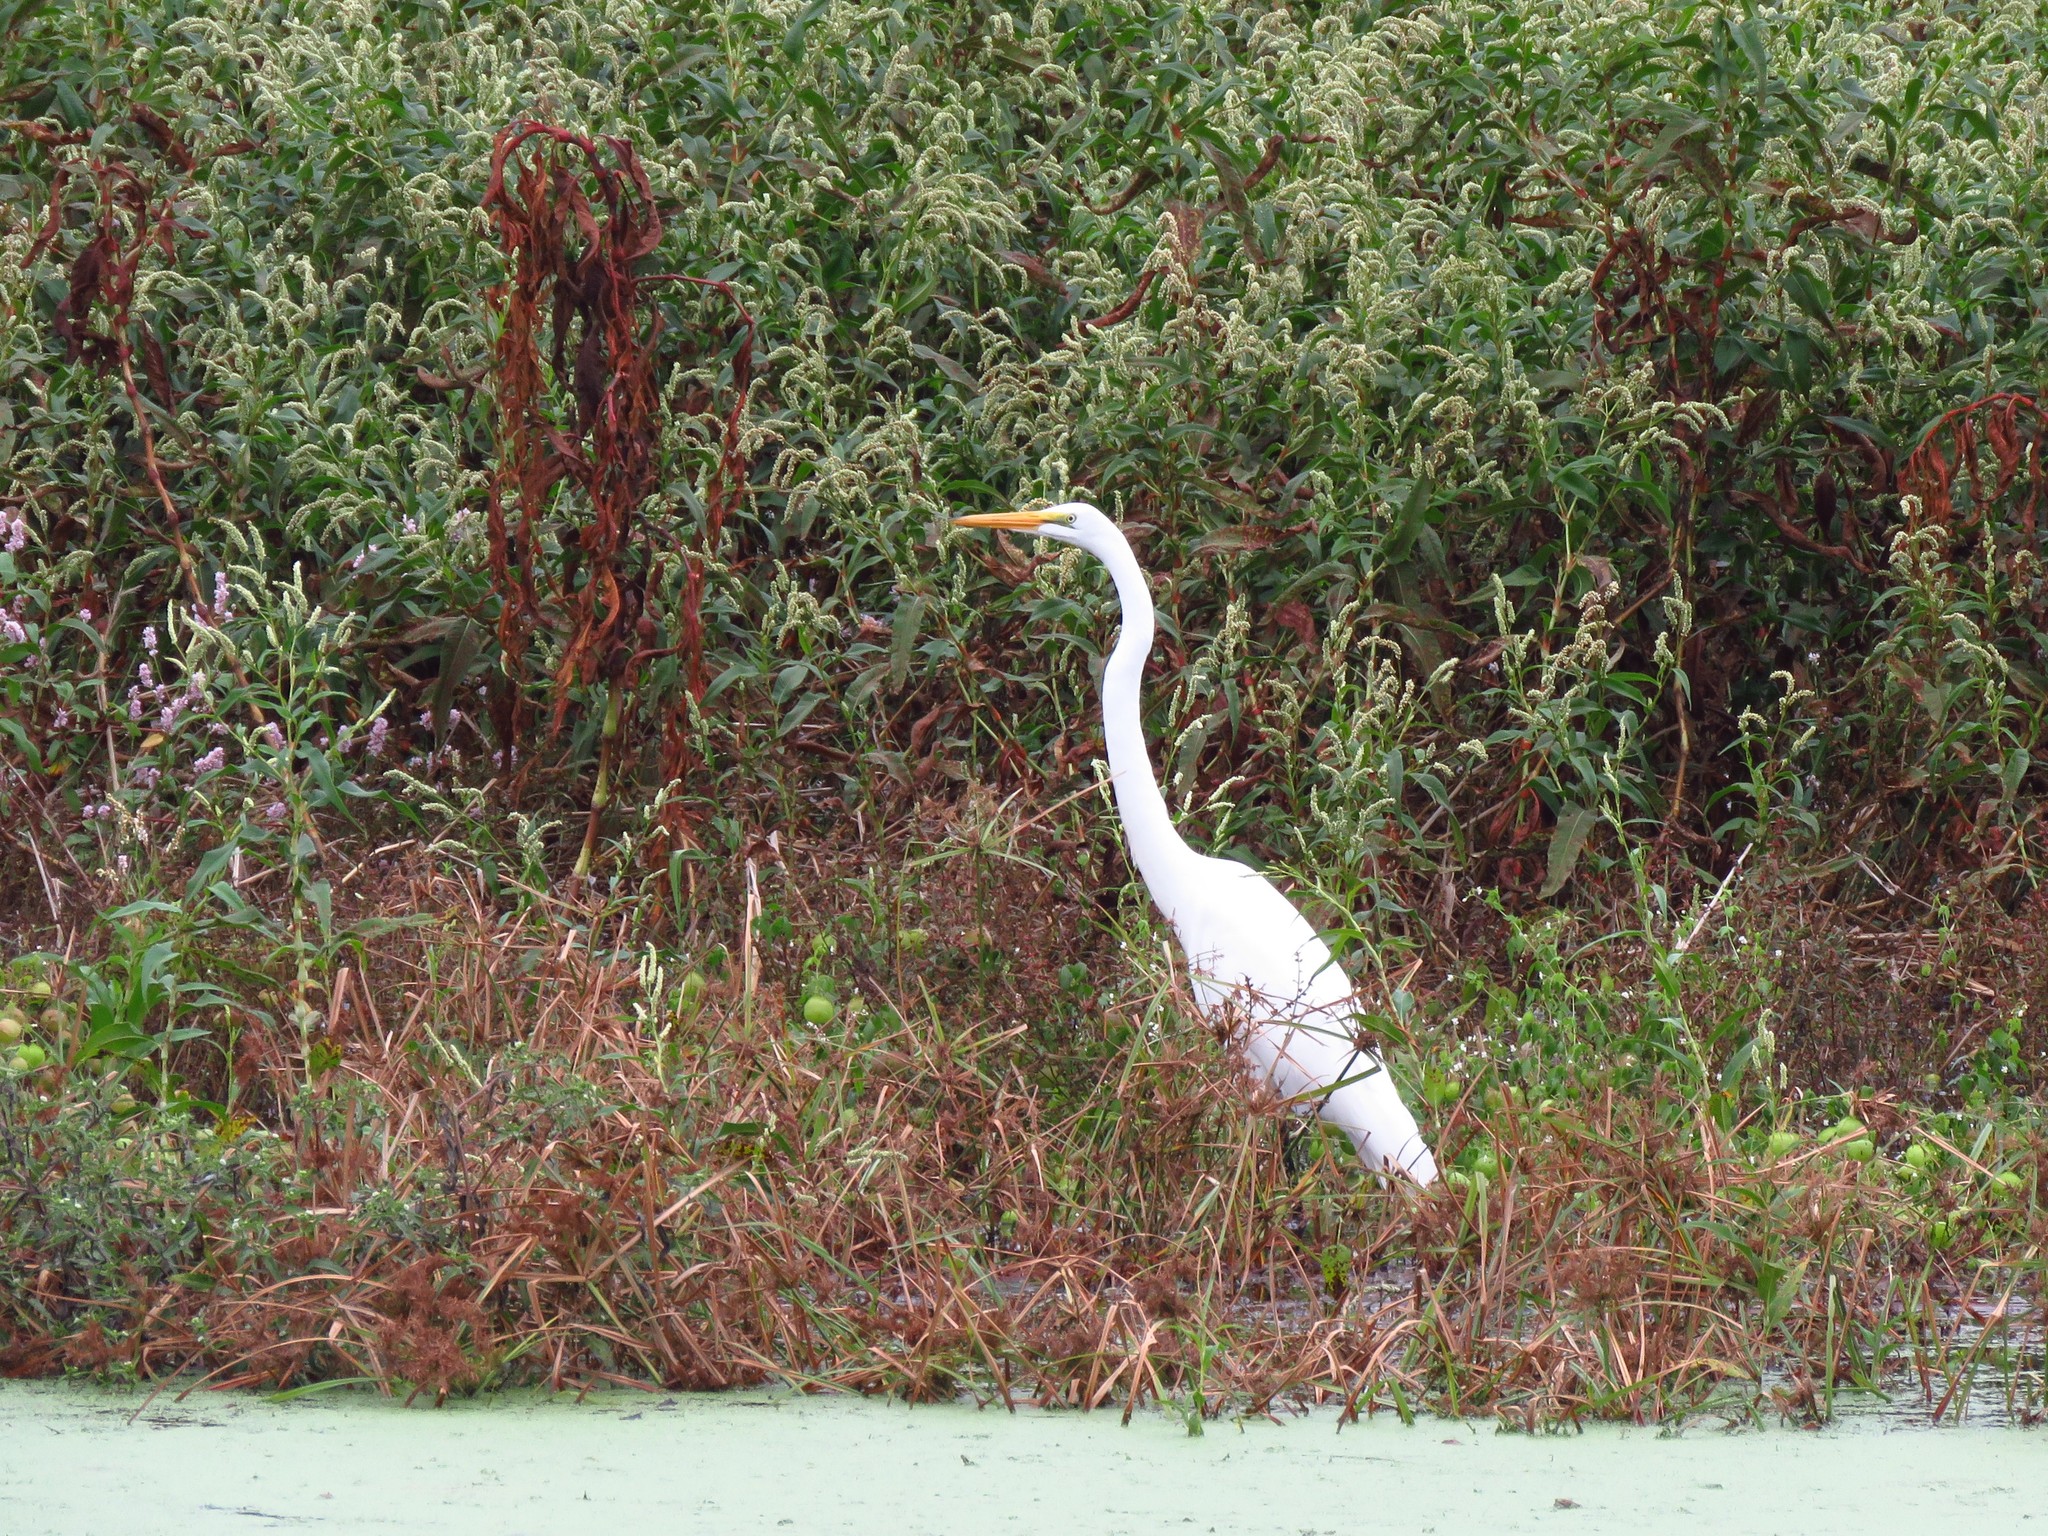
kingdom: Animalia
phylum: Chordata
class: Aves
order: Pelecaniformes
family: Ardeidae
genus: Ardea
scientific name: Ardea alba
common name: Great egret
